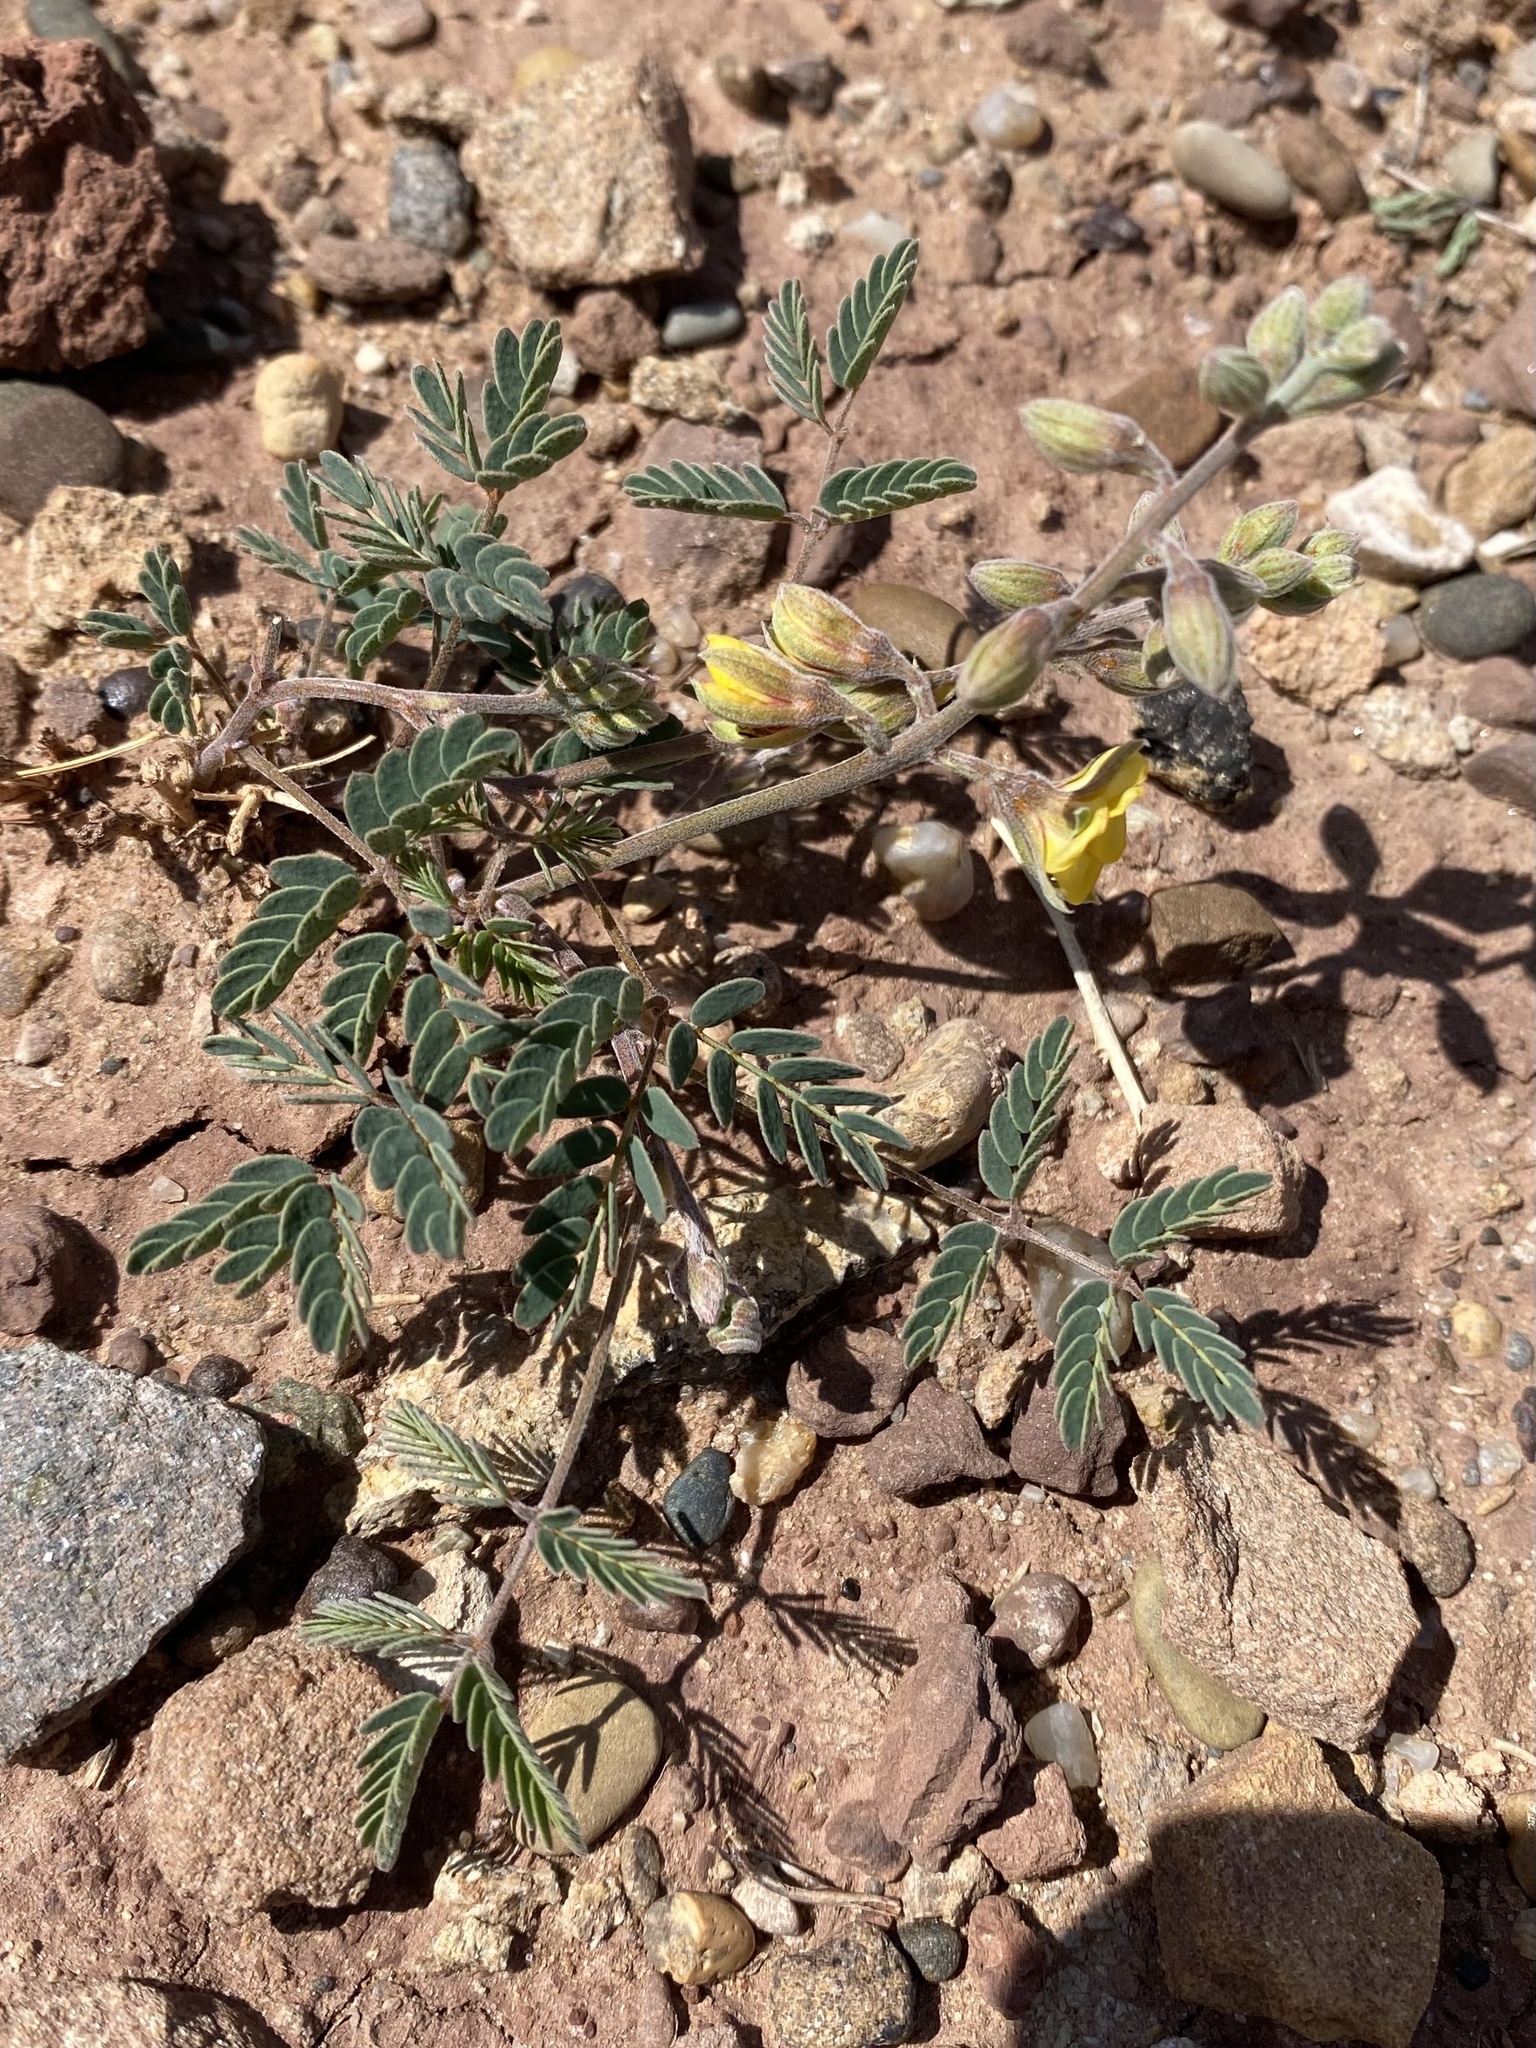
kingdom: Plantae
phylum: Tracheophyta
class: Magnoliopsida
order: Fabales
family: Fabaceae
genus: Pomaria
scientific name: Pomaria jamesii
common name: James' caesalpinia
